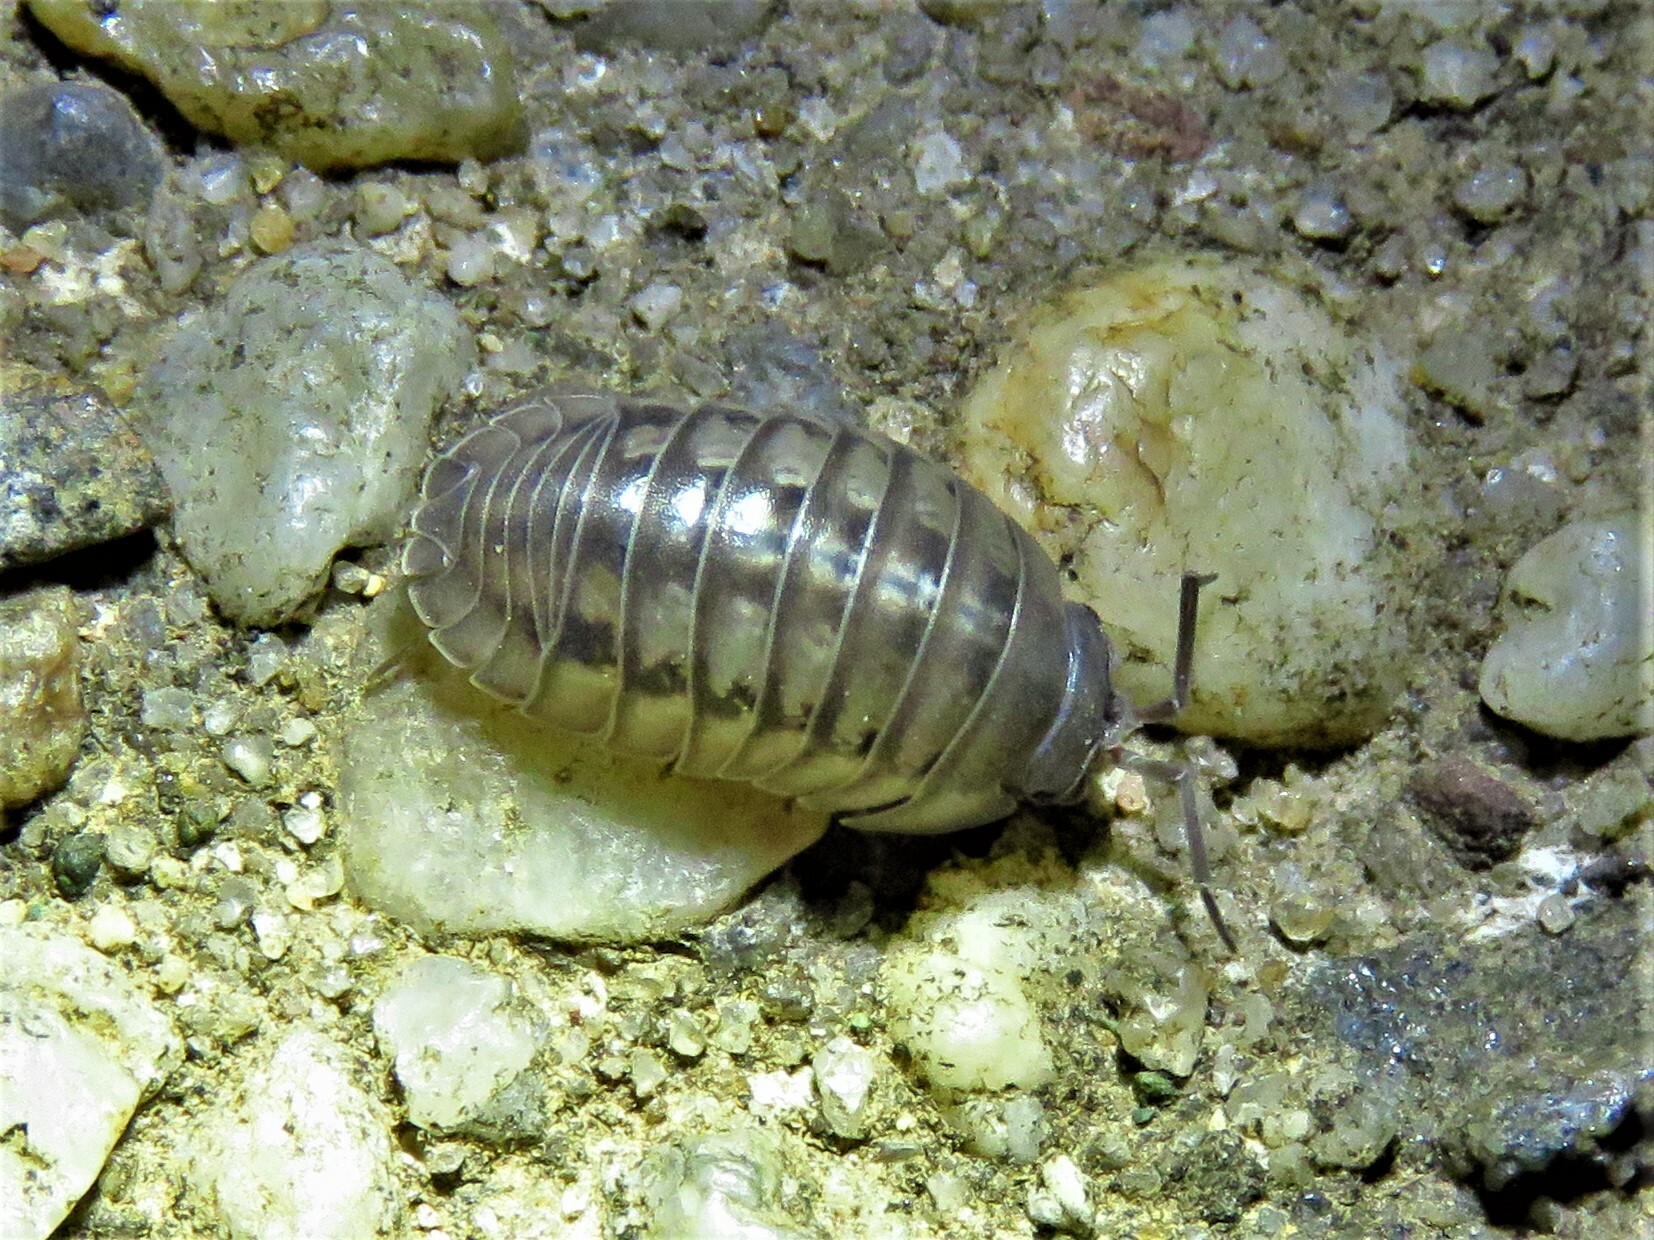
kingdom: Animalia
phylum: Arthropoda
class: Malacostraca
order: Isopoda
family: Armadillidiidae
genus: Armadillidium
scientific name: Armadillidium nasatum
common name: Isopod
